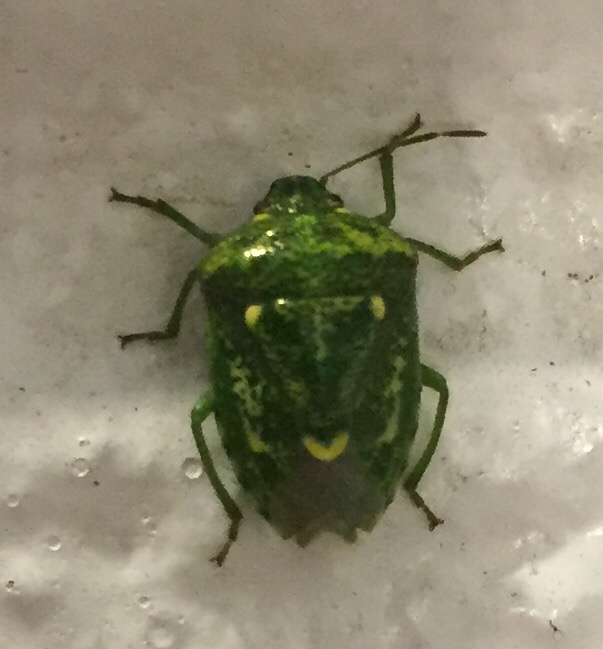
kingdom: Animalia
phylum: Arthropoda
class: Insecta
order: Hemiptera
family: Pentatomidae
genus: Banasa
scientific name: Banasa euchlora
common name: Cedar berry bug
